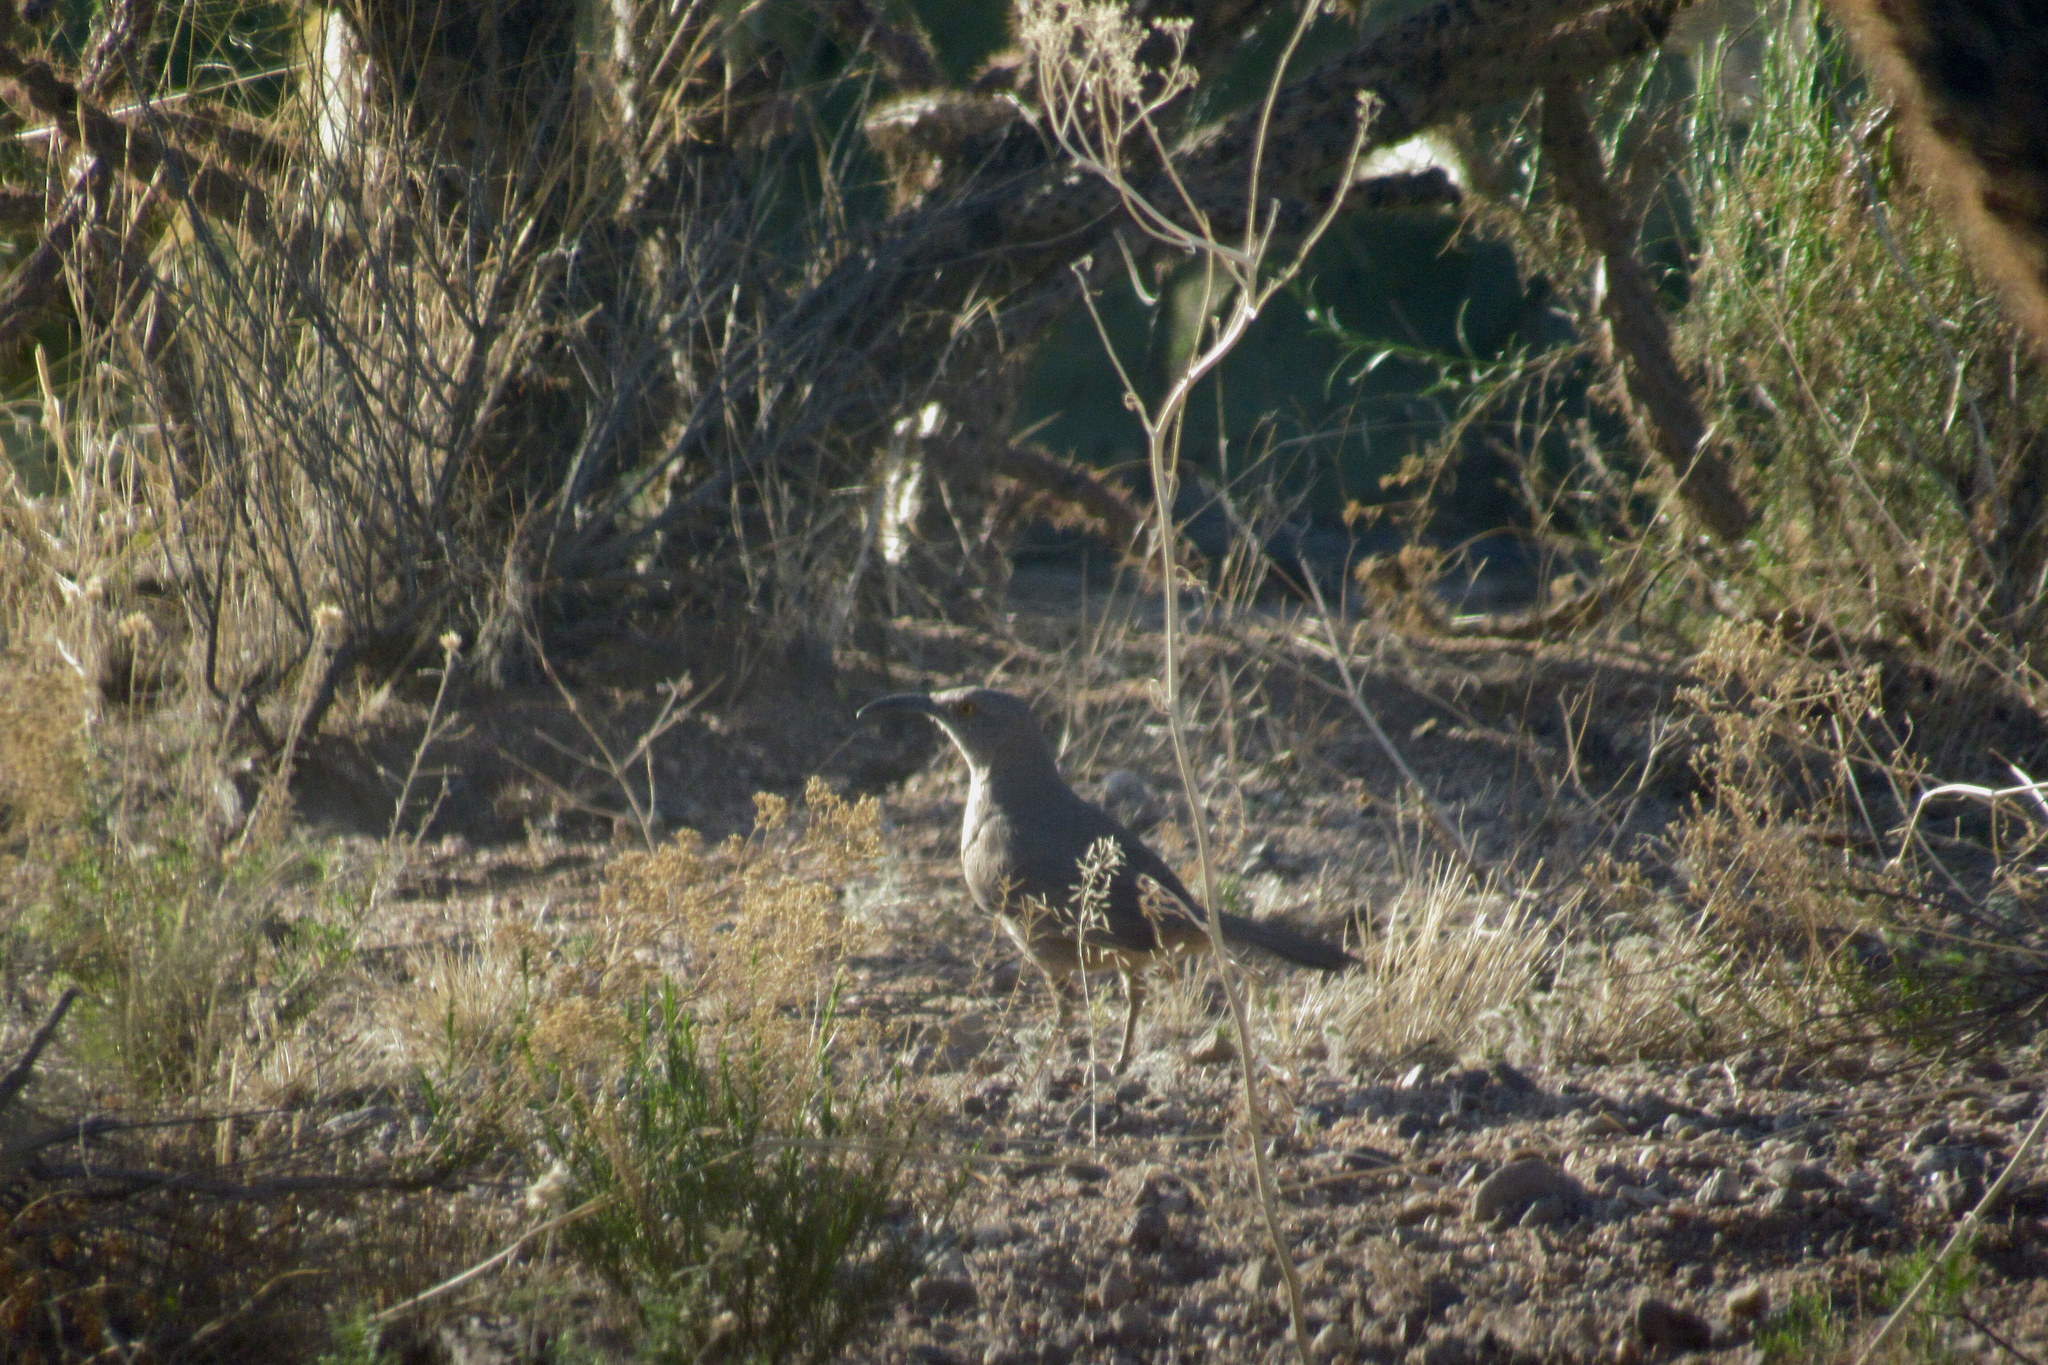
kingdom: Animalia
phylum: Chordata
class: Aves
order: Passeriformes
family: Mimidae
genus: Toxostoma
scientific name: Toxostoma curvirostre
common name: Curve-billed thrasher
